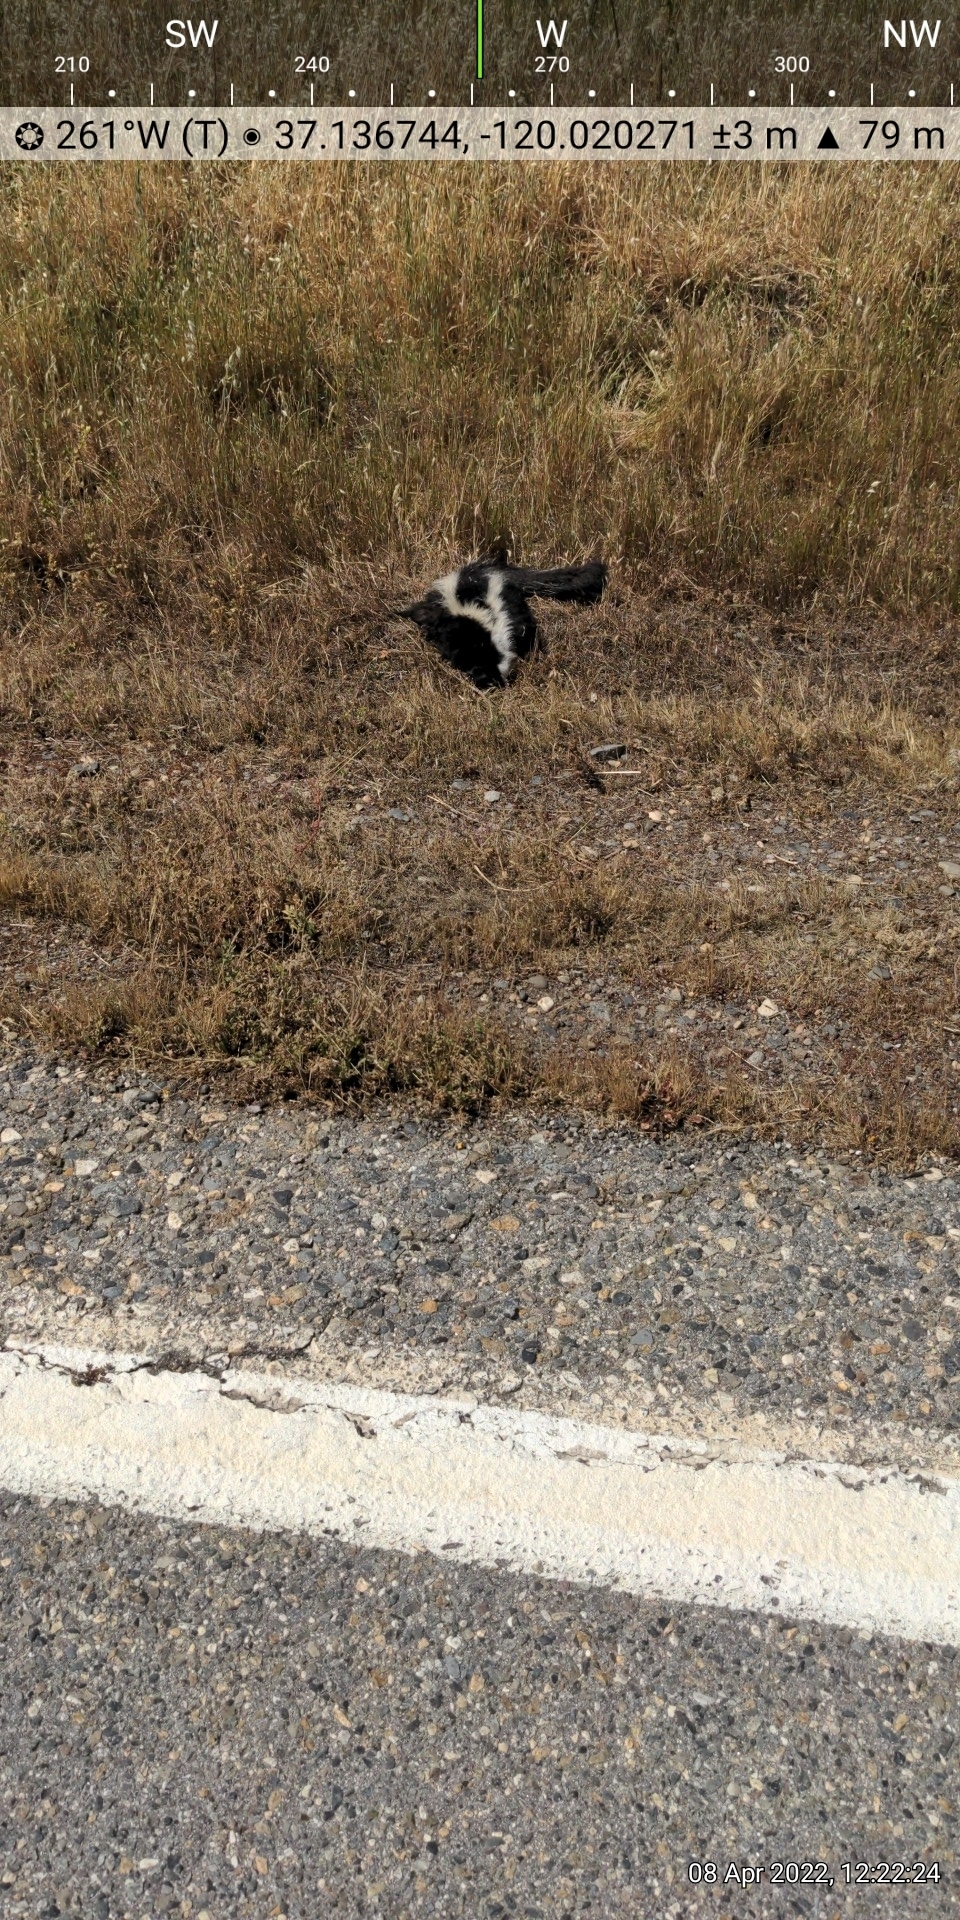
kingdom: Animalia
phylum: Chordata
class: Mammalia
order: Carnivora
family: Mephitidae
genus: Mephitis
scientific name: Mephitis mephitis
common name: Striped skunk
